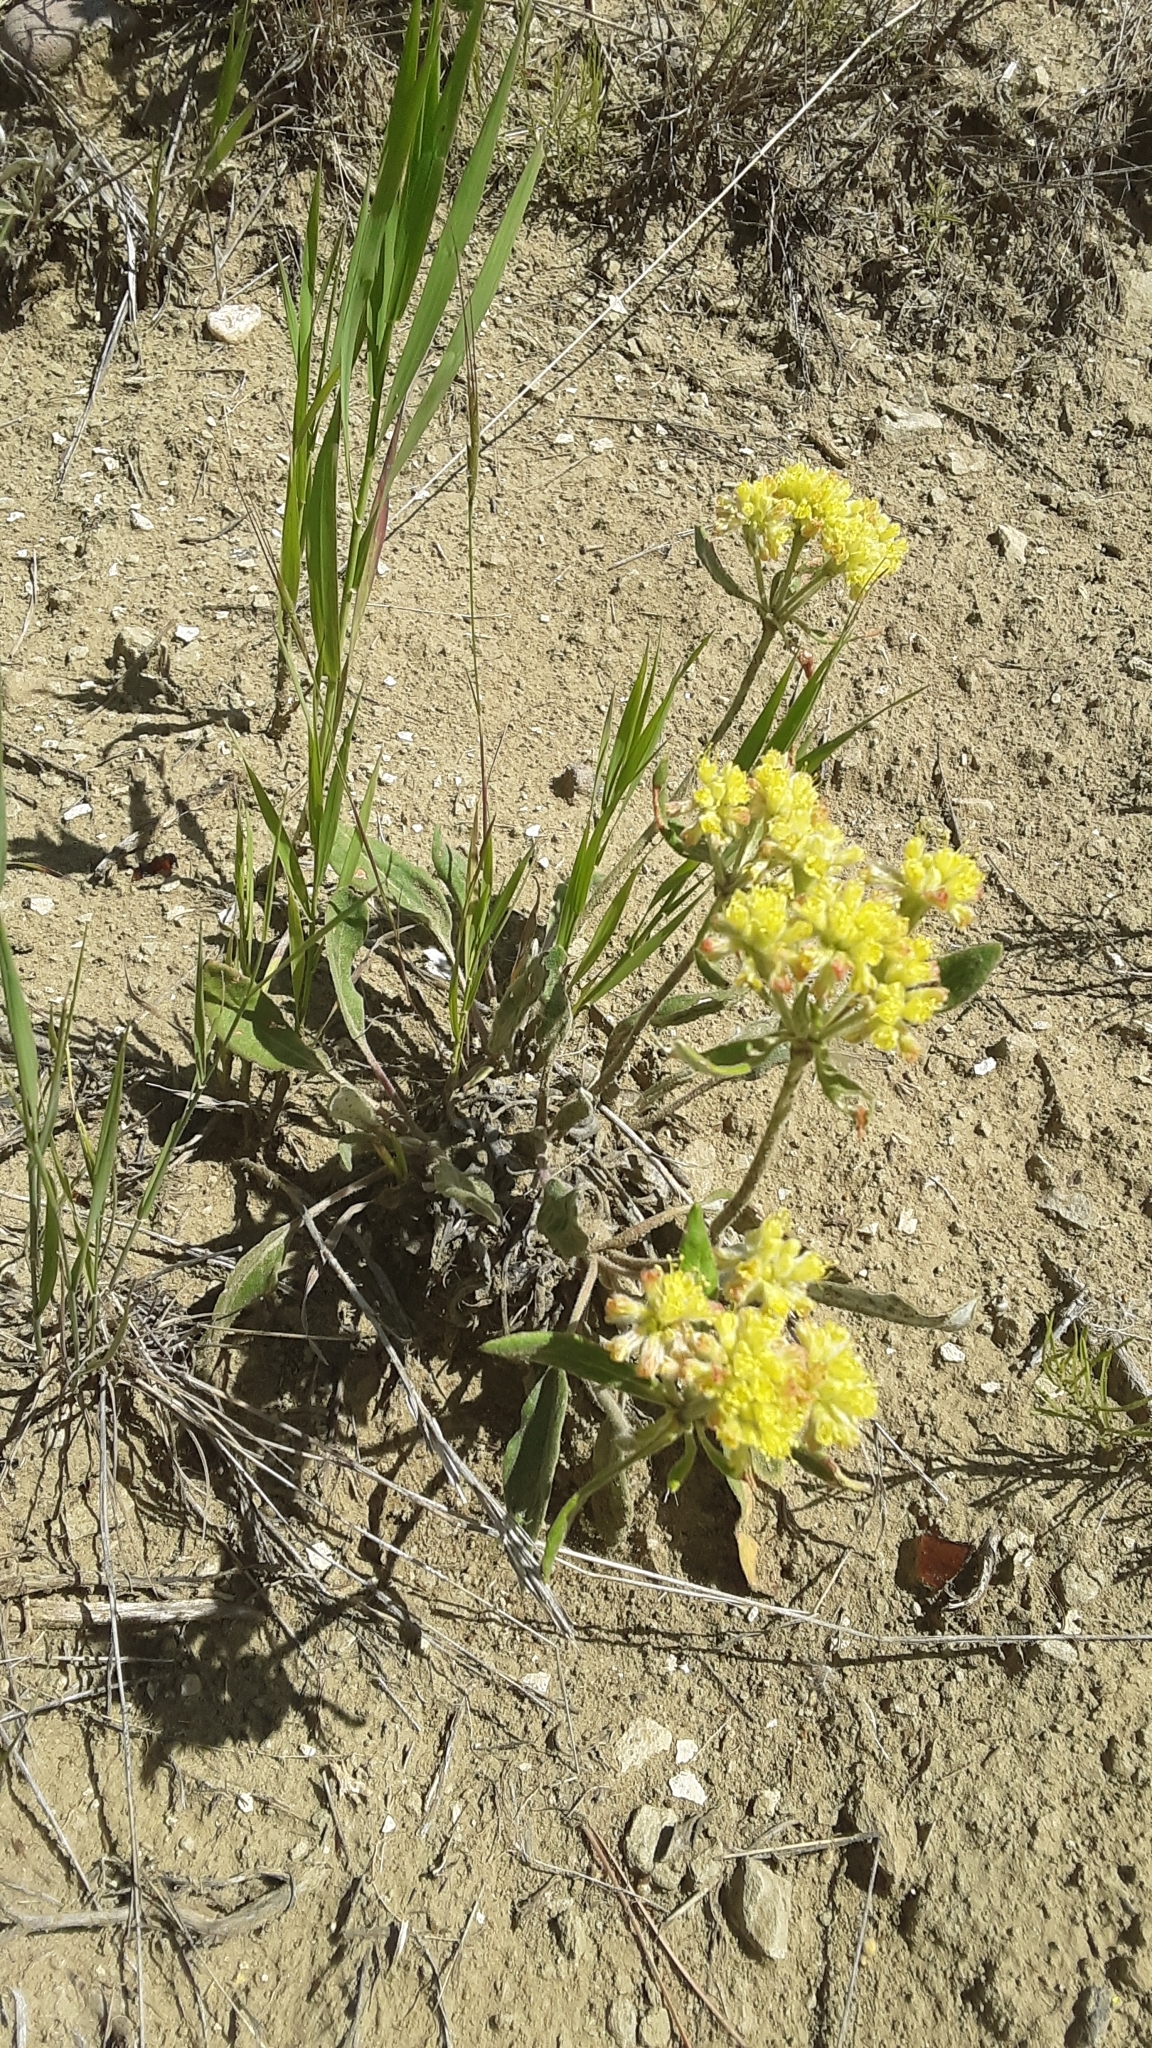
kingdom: Plantae
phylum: Tracheophyta
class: Magnoliopsida
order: Caryophyllales
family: Polygonaceae
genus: Eriogonum
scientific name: Eriogonum flavum
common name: Alpine golden wild buckwheat
